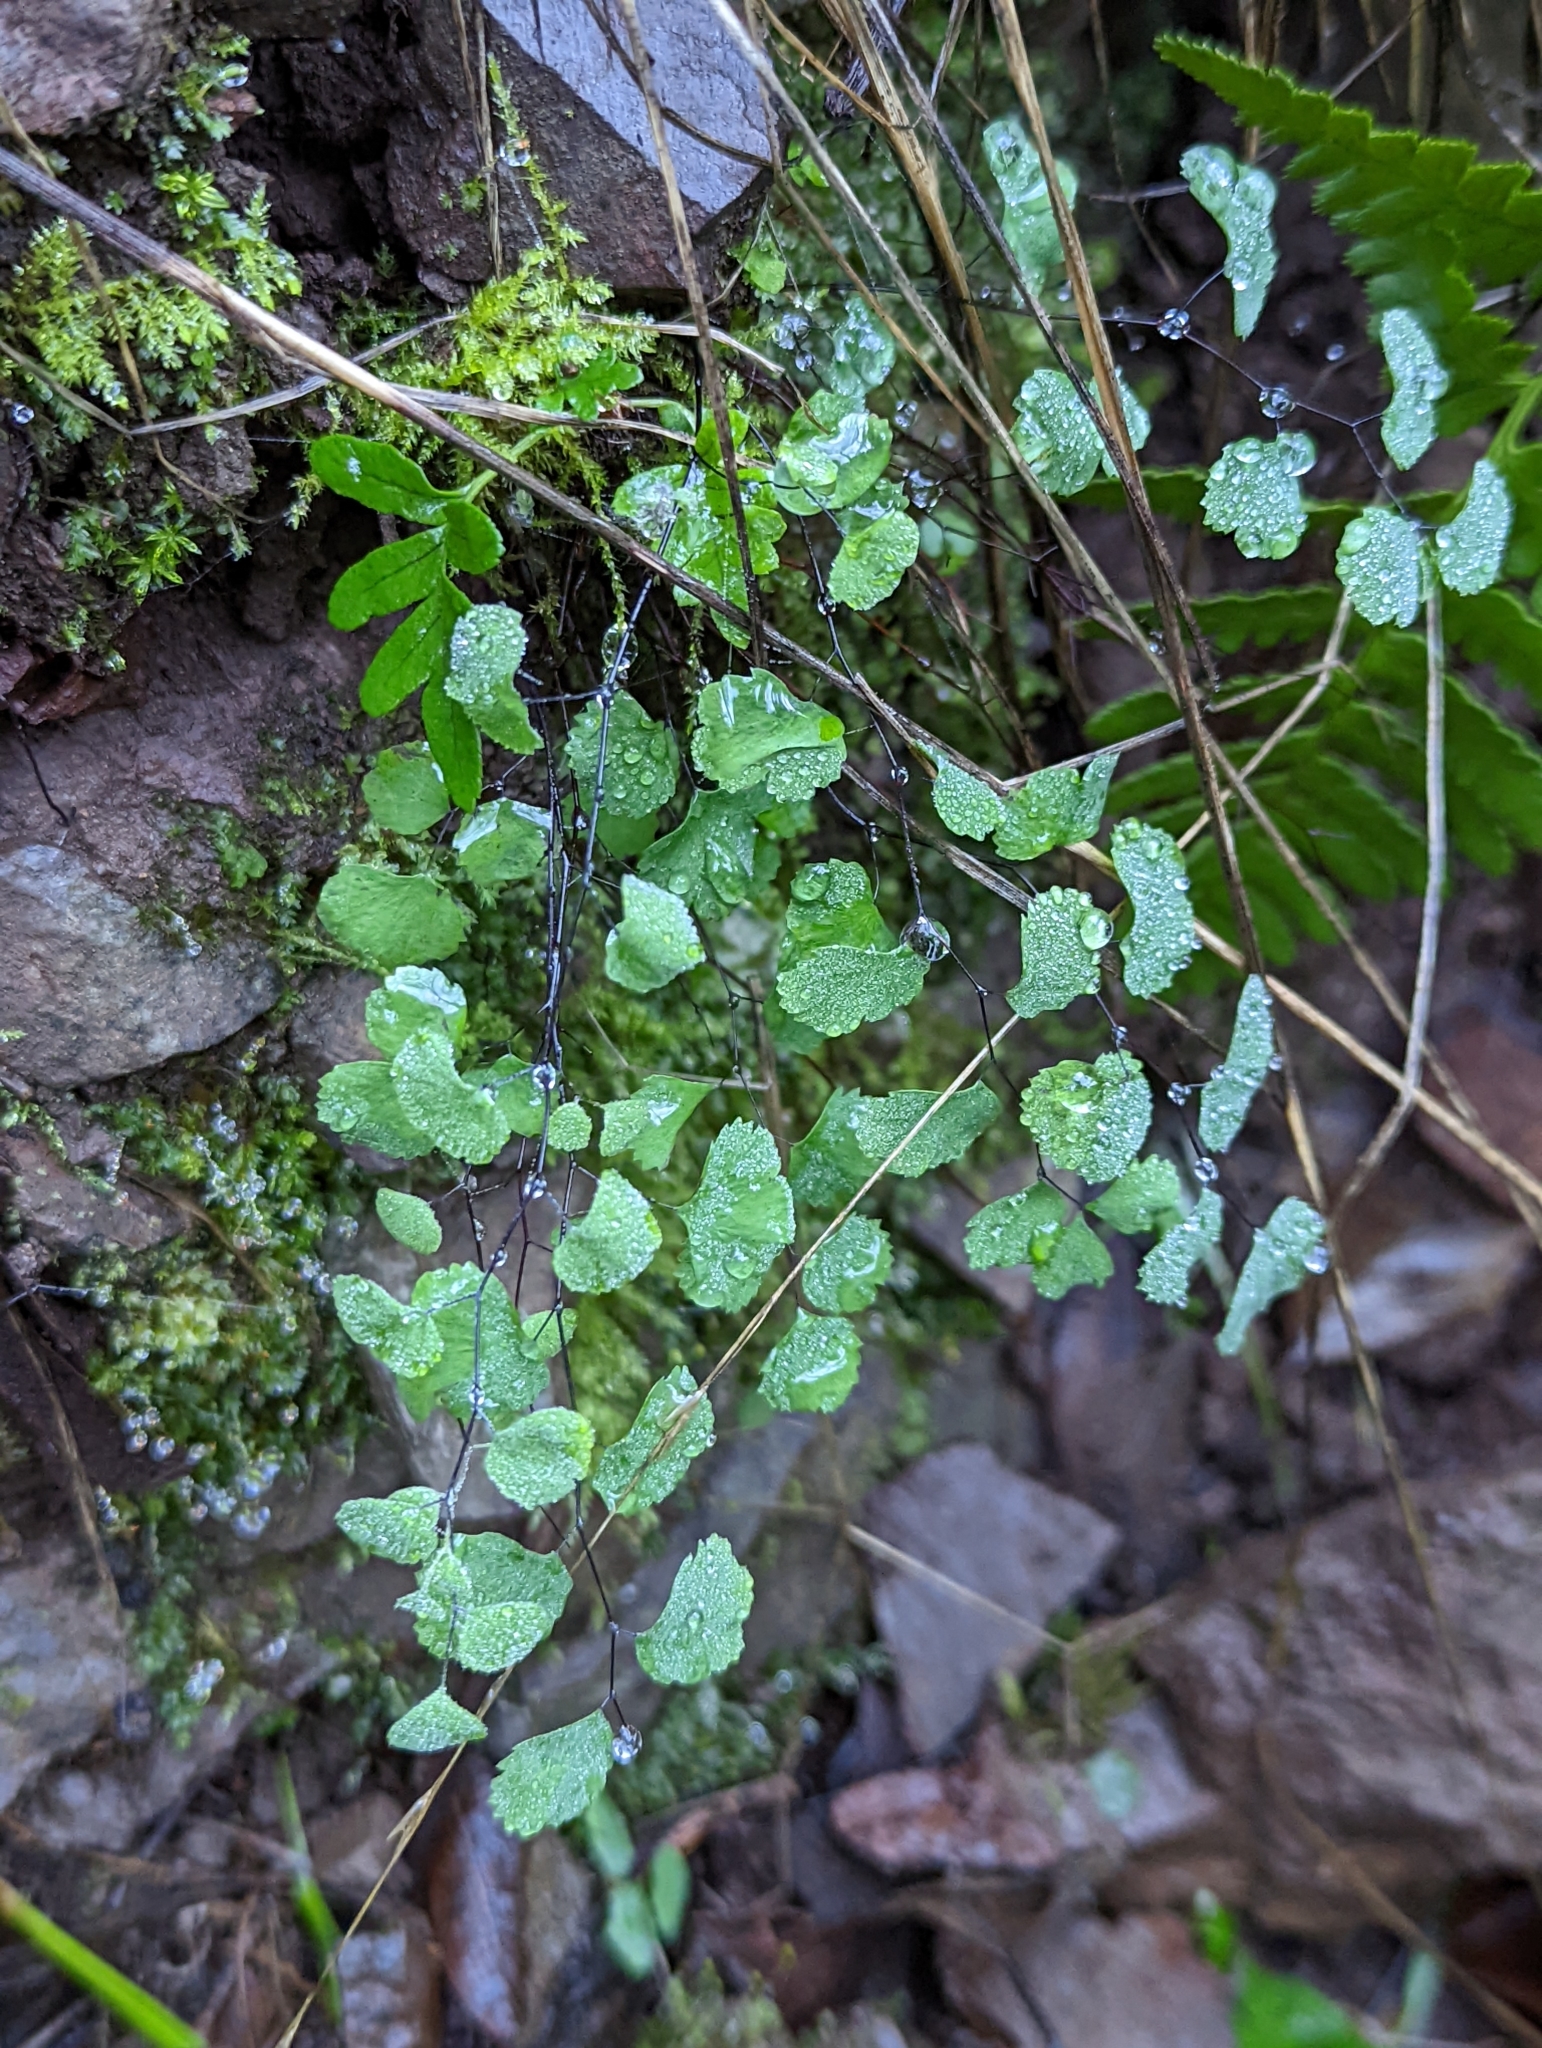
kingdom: Plantae
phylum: Tracheophyta
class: Polypodiopsida
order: Polypodiales
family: Pteridaceae
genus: Adiantum
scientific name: Adiantum jordanii
